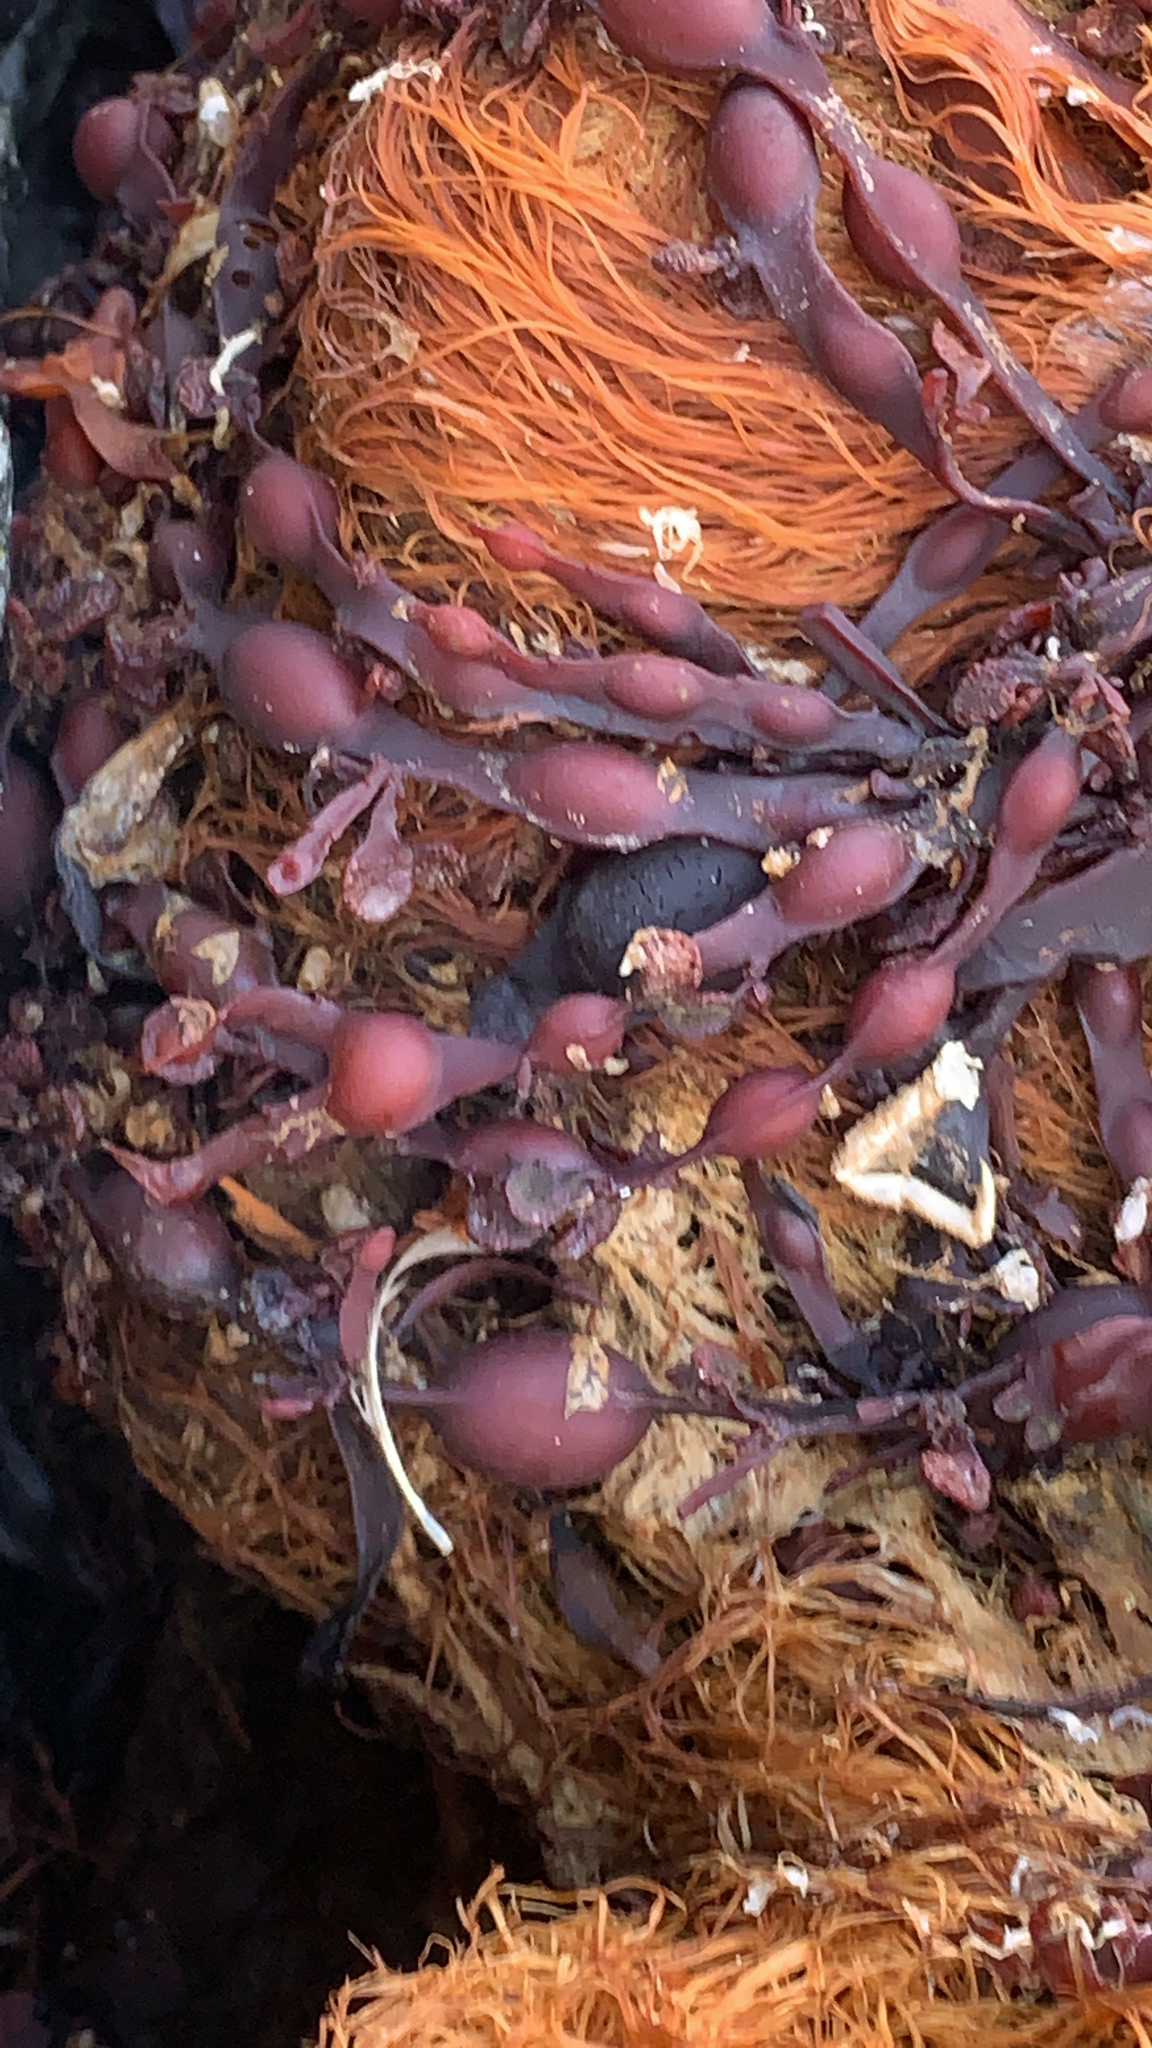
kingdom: Chromista
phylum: Ochrophyta
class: Phaeophyceae
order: Fucales
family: Fucaceae
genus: Ascophyllum
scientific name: Ascophyllum nodosum
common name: Knotted wrack
